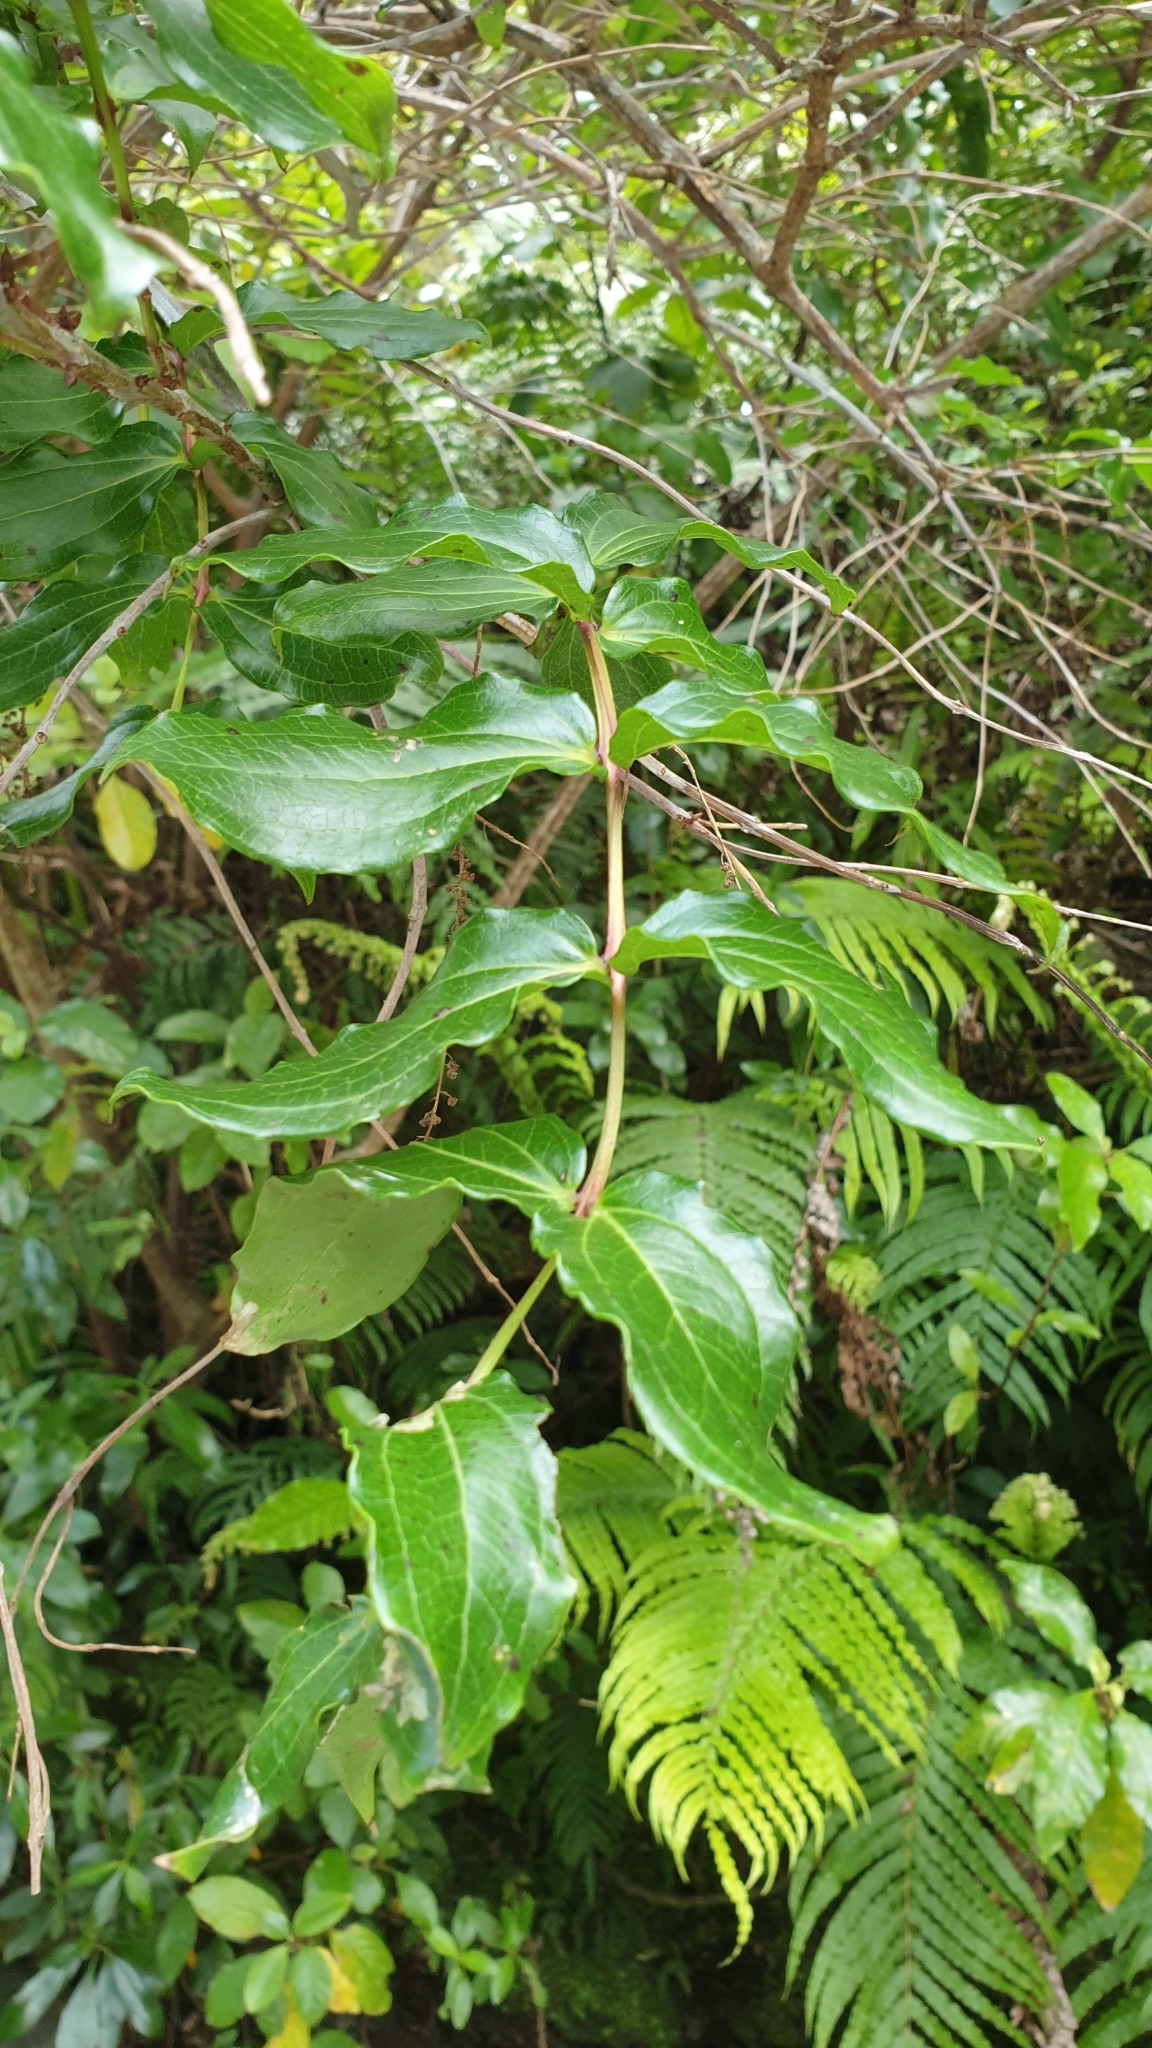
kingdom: Plantae
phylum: Tracheophyta
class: Magnoliopsida
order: Cucurbitales
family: Coriariaceae
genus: Coriaria
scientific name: Coriaria arborea
